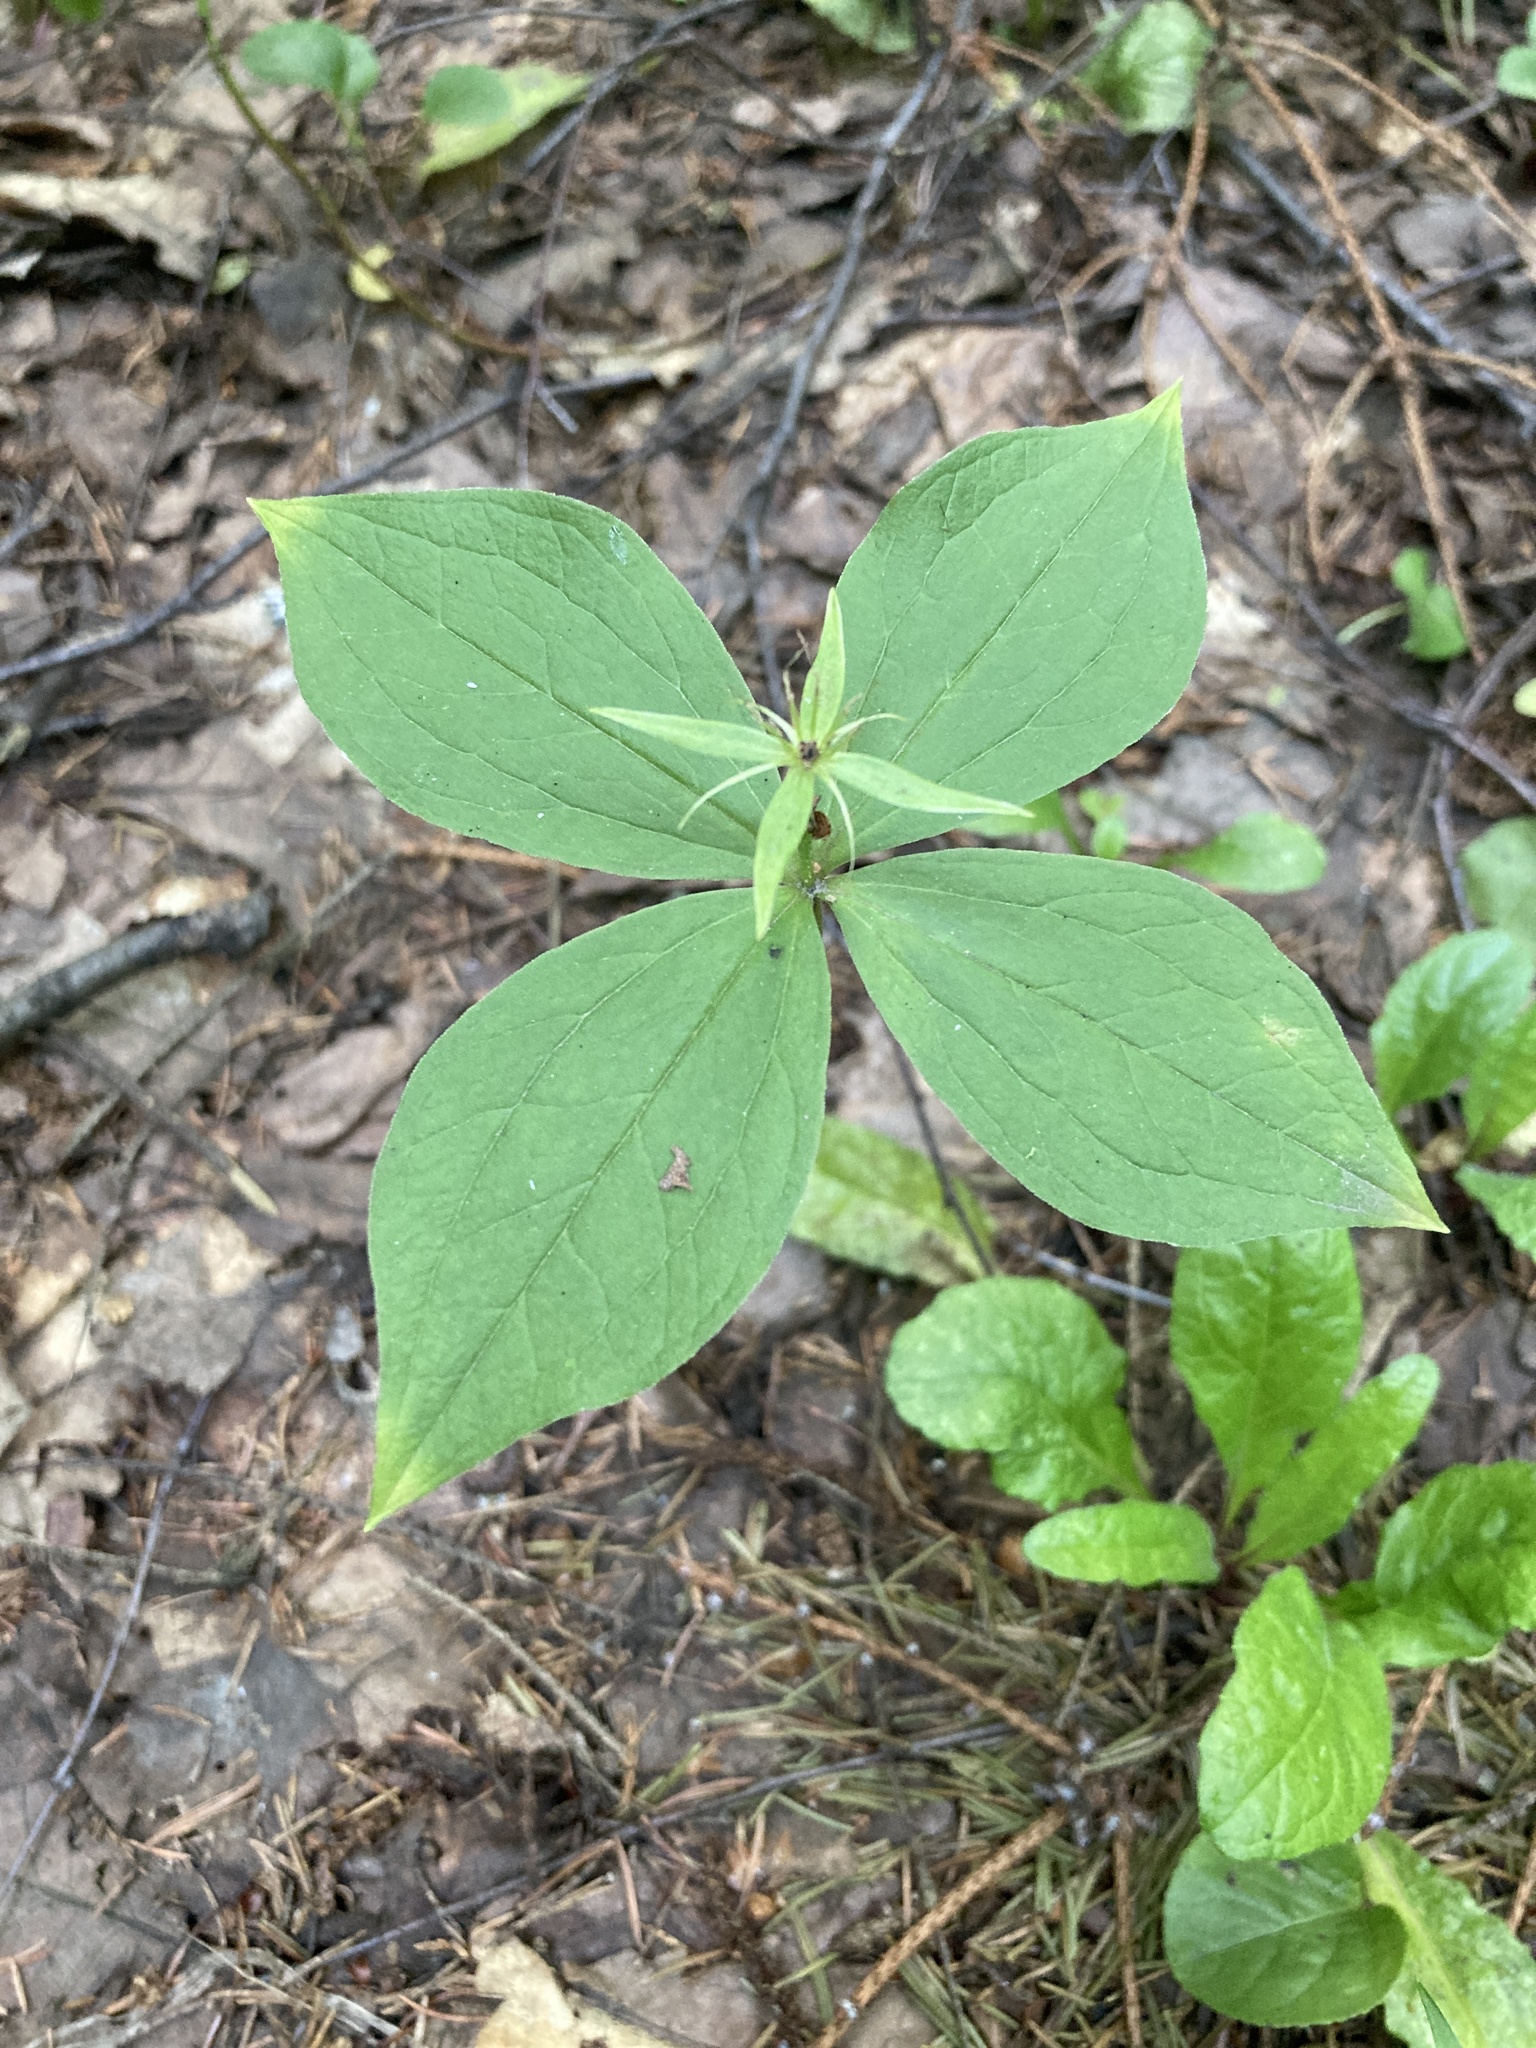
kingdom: Plantae
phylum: Tracheophyta
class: Liliopsida
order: Liliales
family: Melanthiaceae
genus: Paris
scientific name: Paris quadrifolia
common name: Herb-paris
